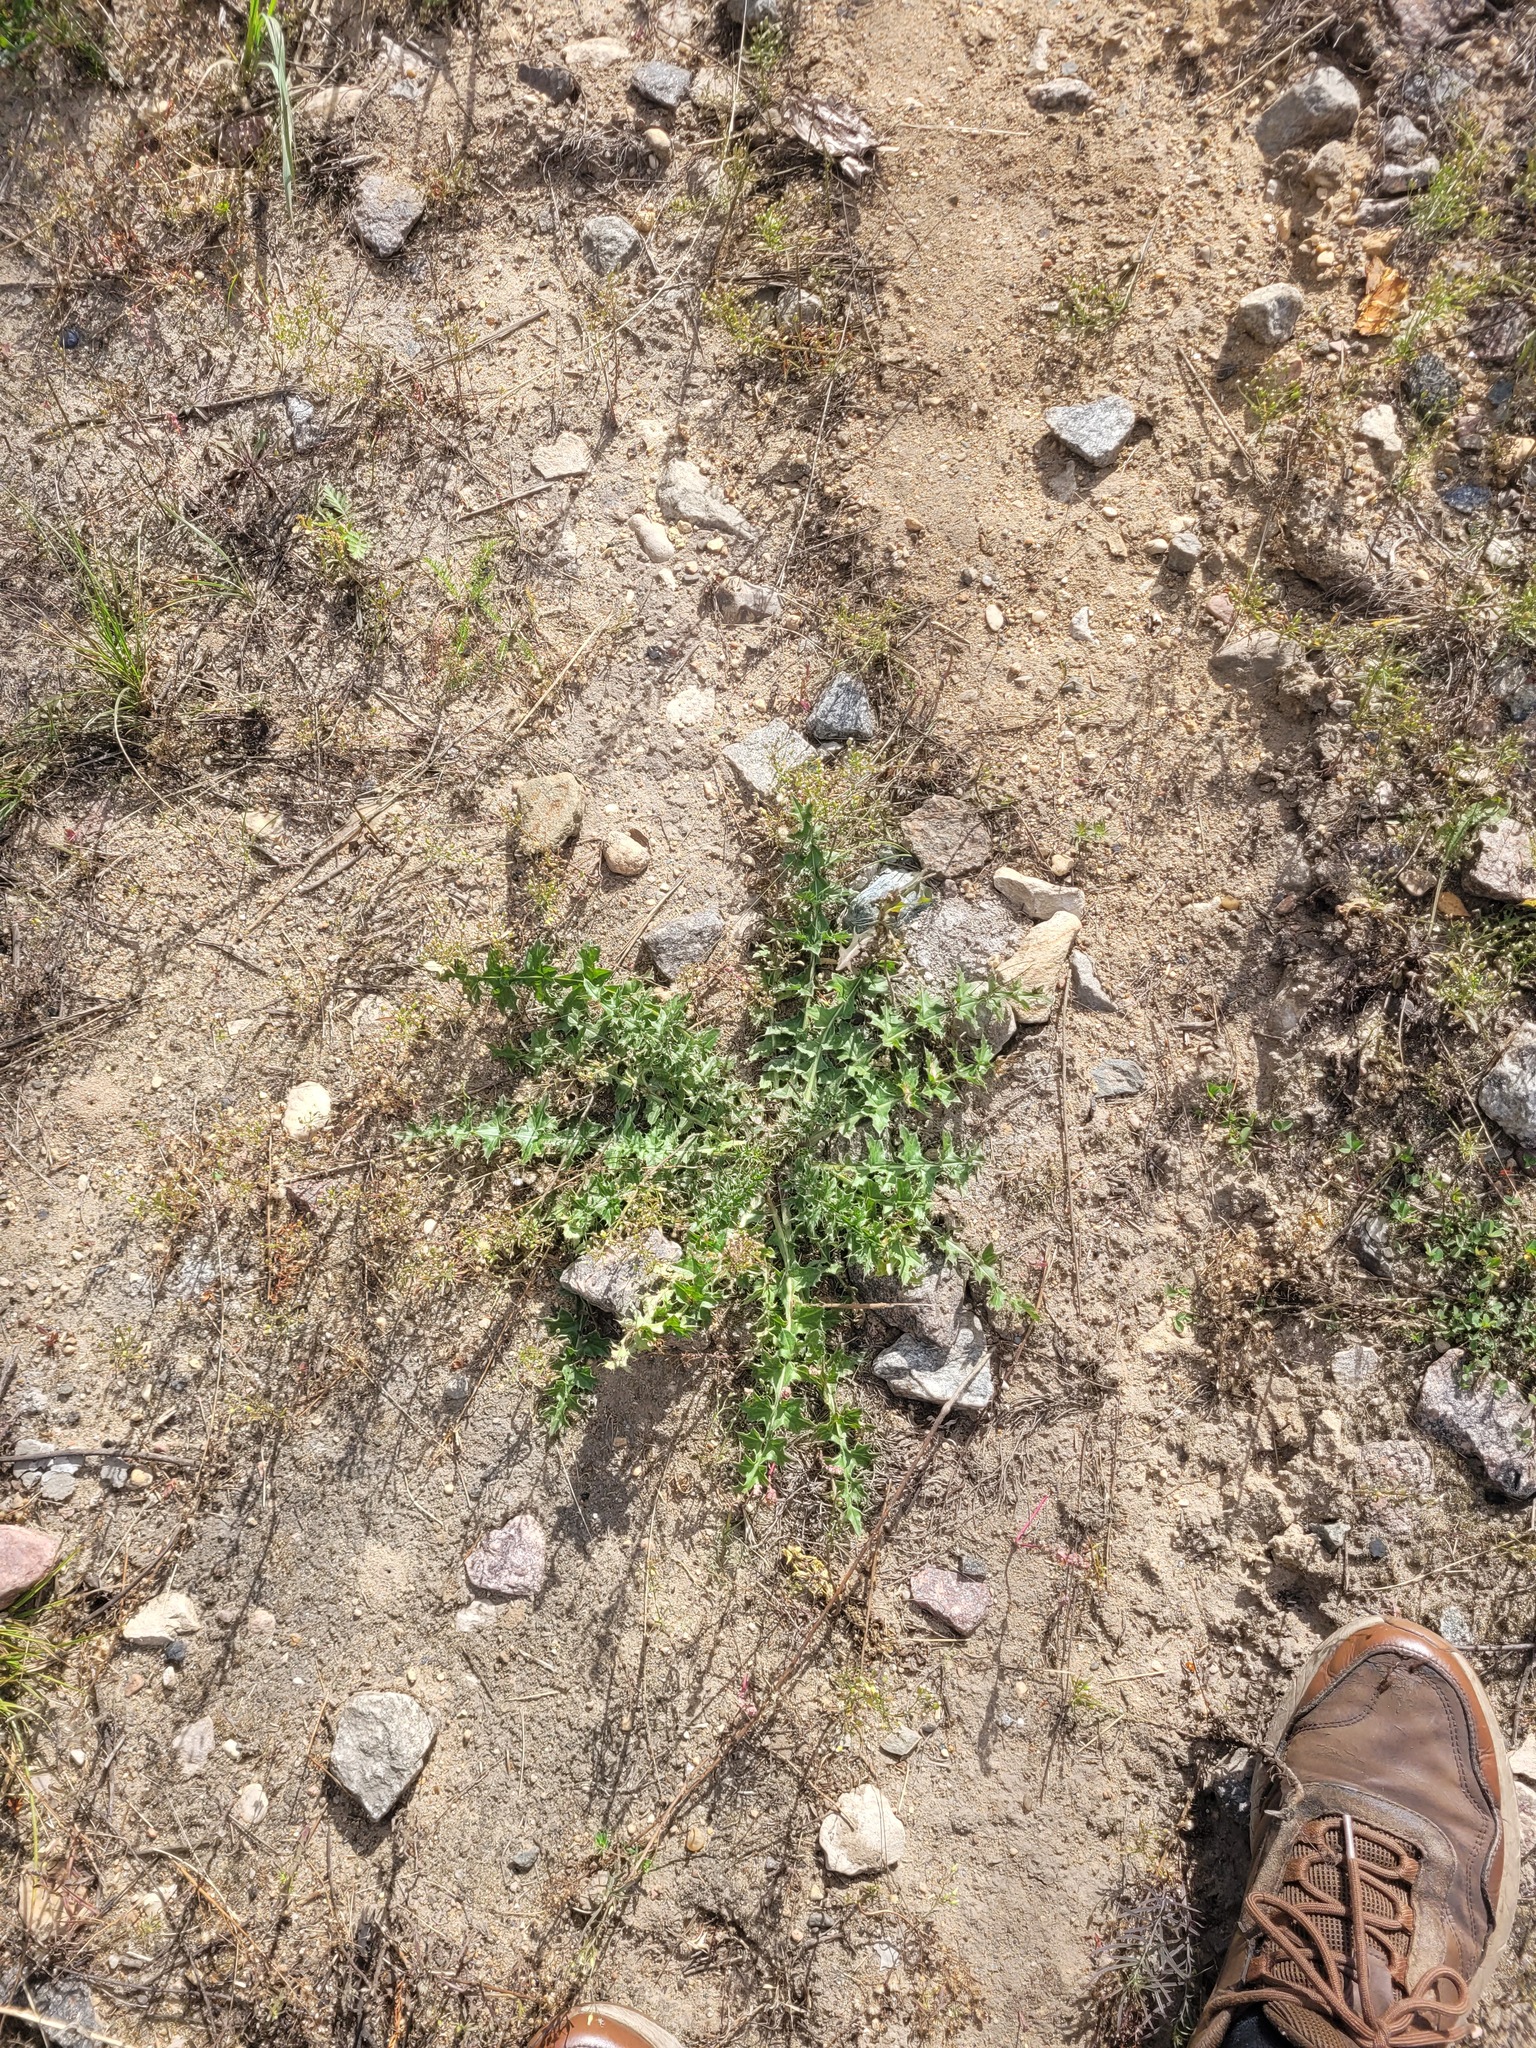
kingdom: Plantae
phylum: Tracheophyta
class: Magnoliopsida
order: Asterales
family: Asteraceae
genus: Carduus
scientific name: Carduus acanthoides
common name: Plumeless thistle
